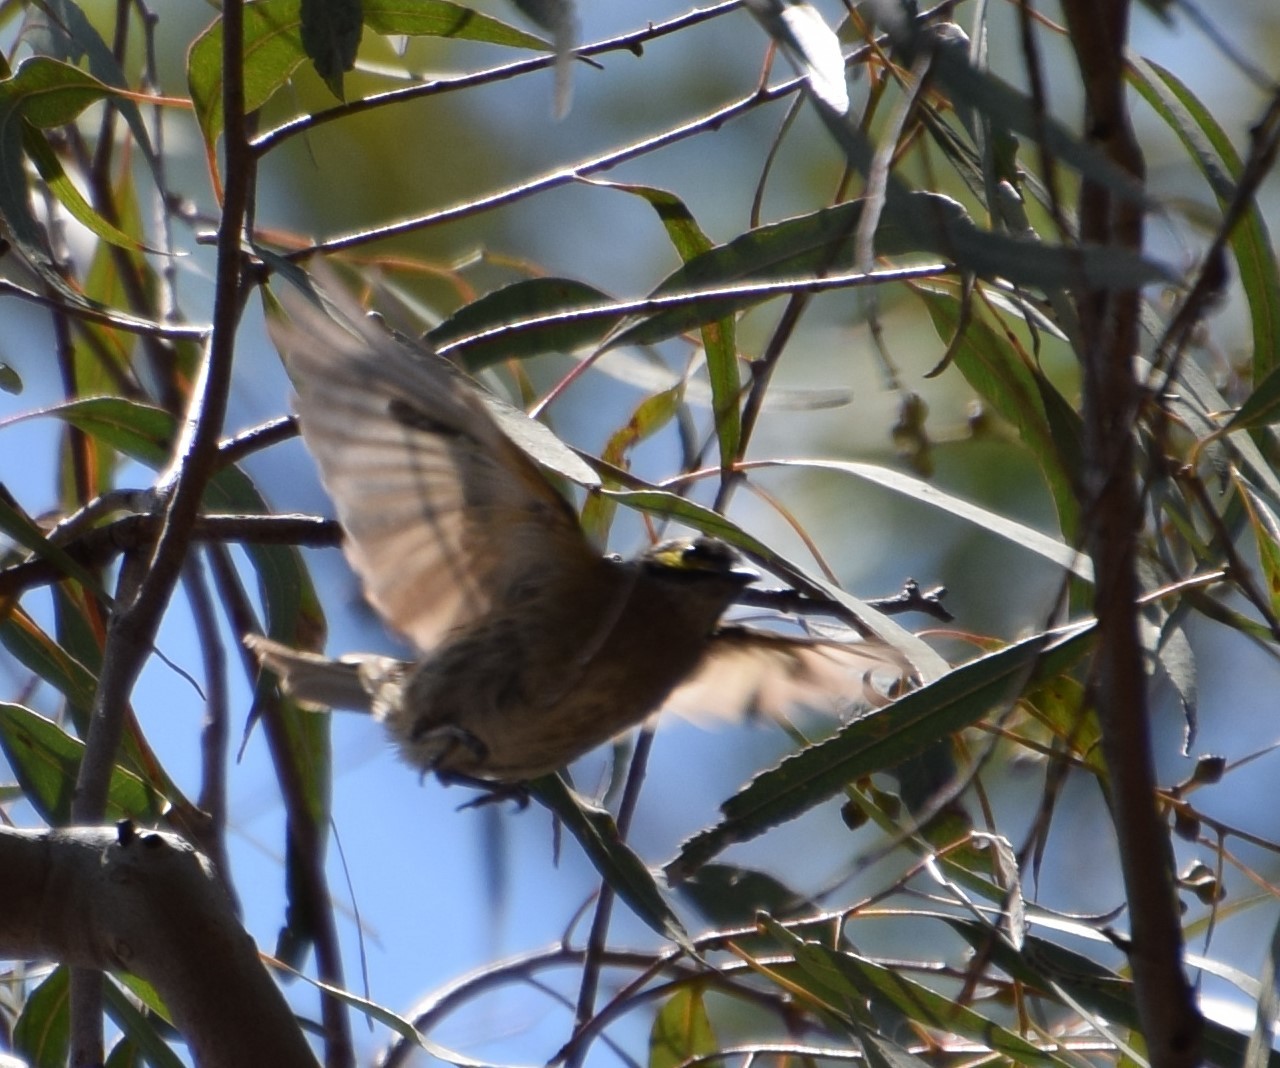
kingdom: Animalia
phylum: Chordata
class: Aves
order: Passeriformes
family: Meliphagidae
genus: Caligavis
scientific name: Caligavis chrysops
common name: Yellow-faced honeyeater
